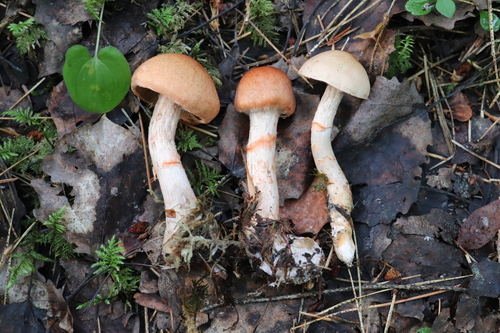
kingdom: Fungi
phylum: Basidiomycota
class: Agaricomycetes
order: Agaricales
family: Cortinariaceae
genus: Cortinarius
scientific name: Cortinarius armillatus
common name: Red banded webcap
